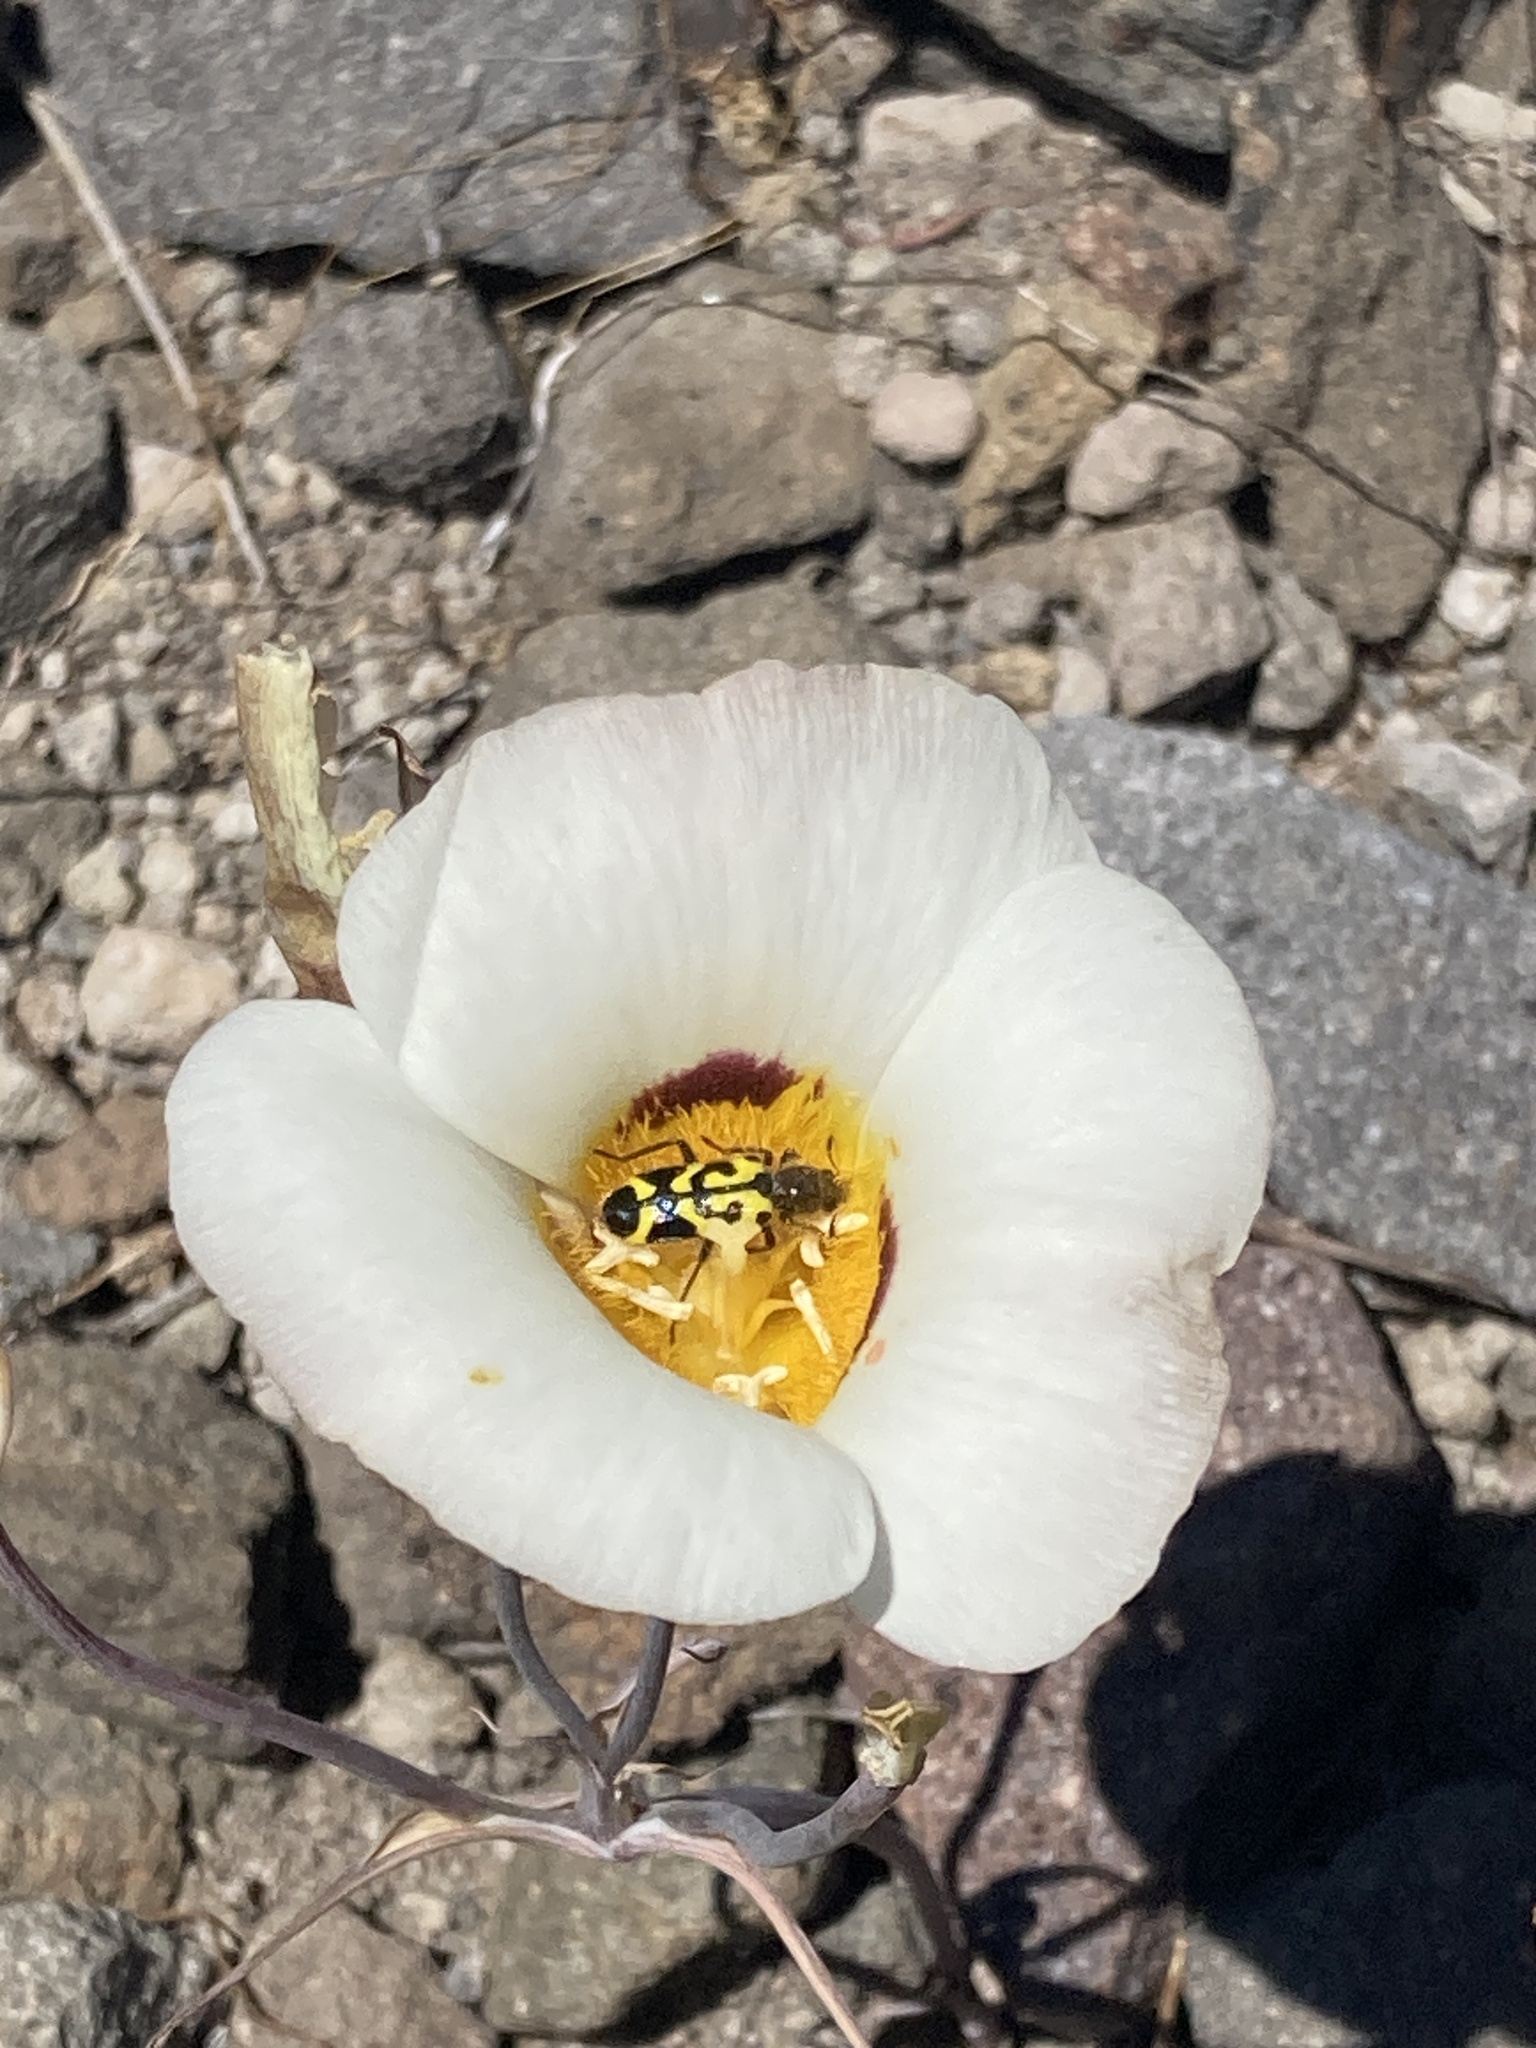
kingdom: Plantae
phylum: Tracheophyta
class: Liliopsida
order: Liliales
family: Liliaceae
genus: Calochortus
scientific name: Calochortus leichtlinii
